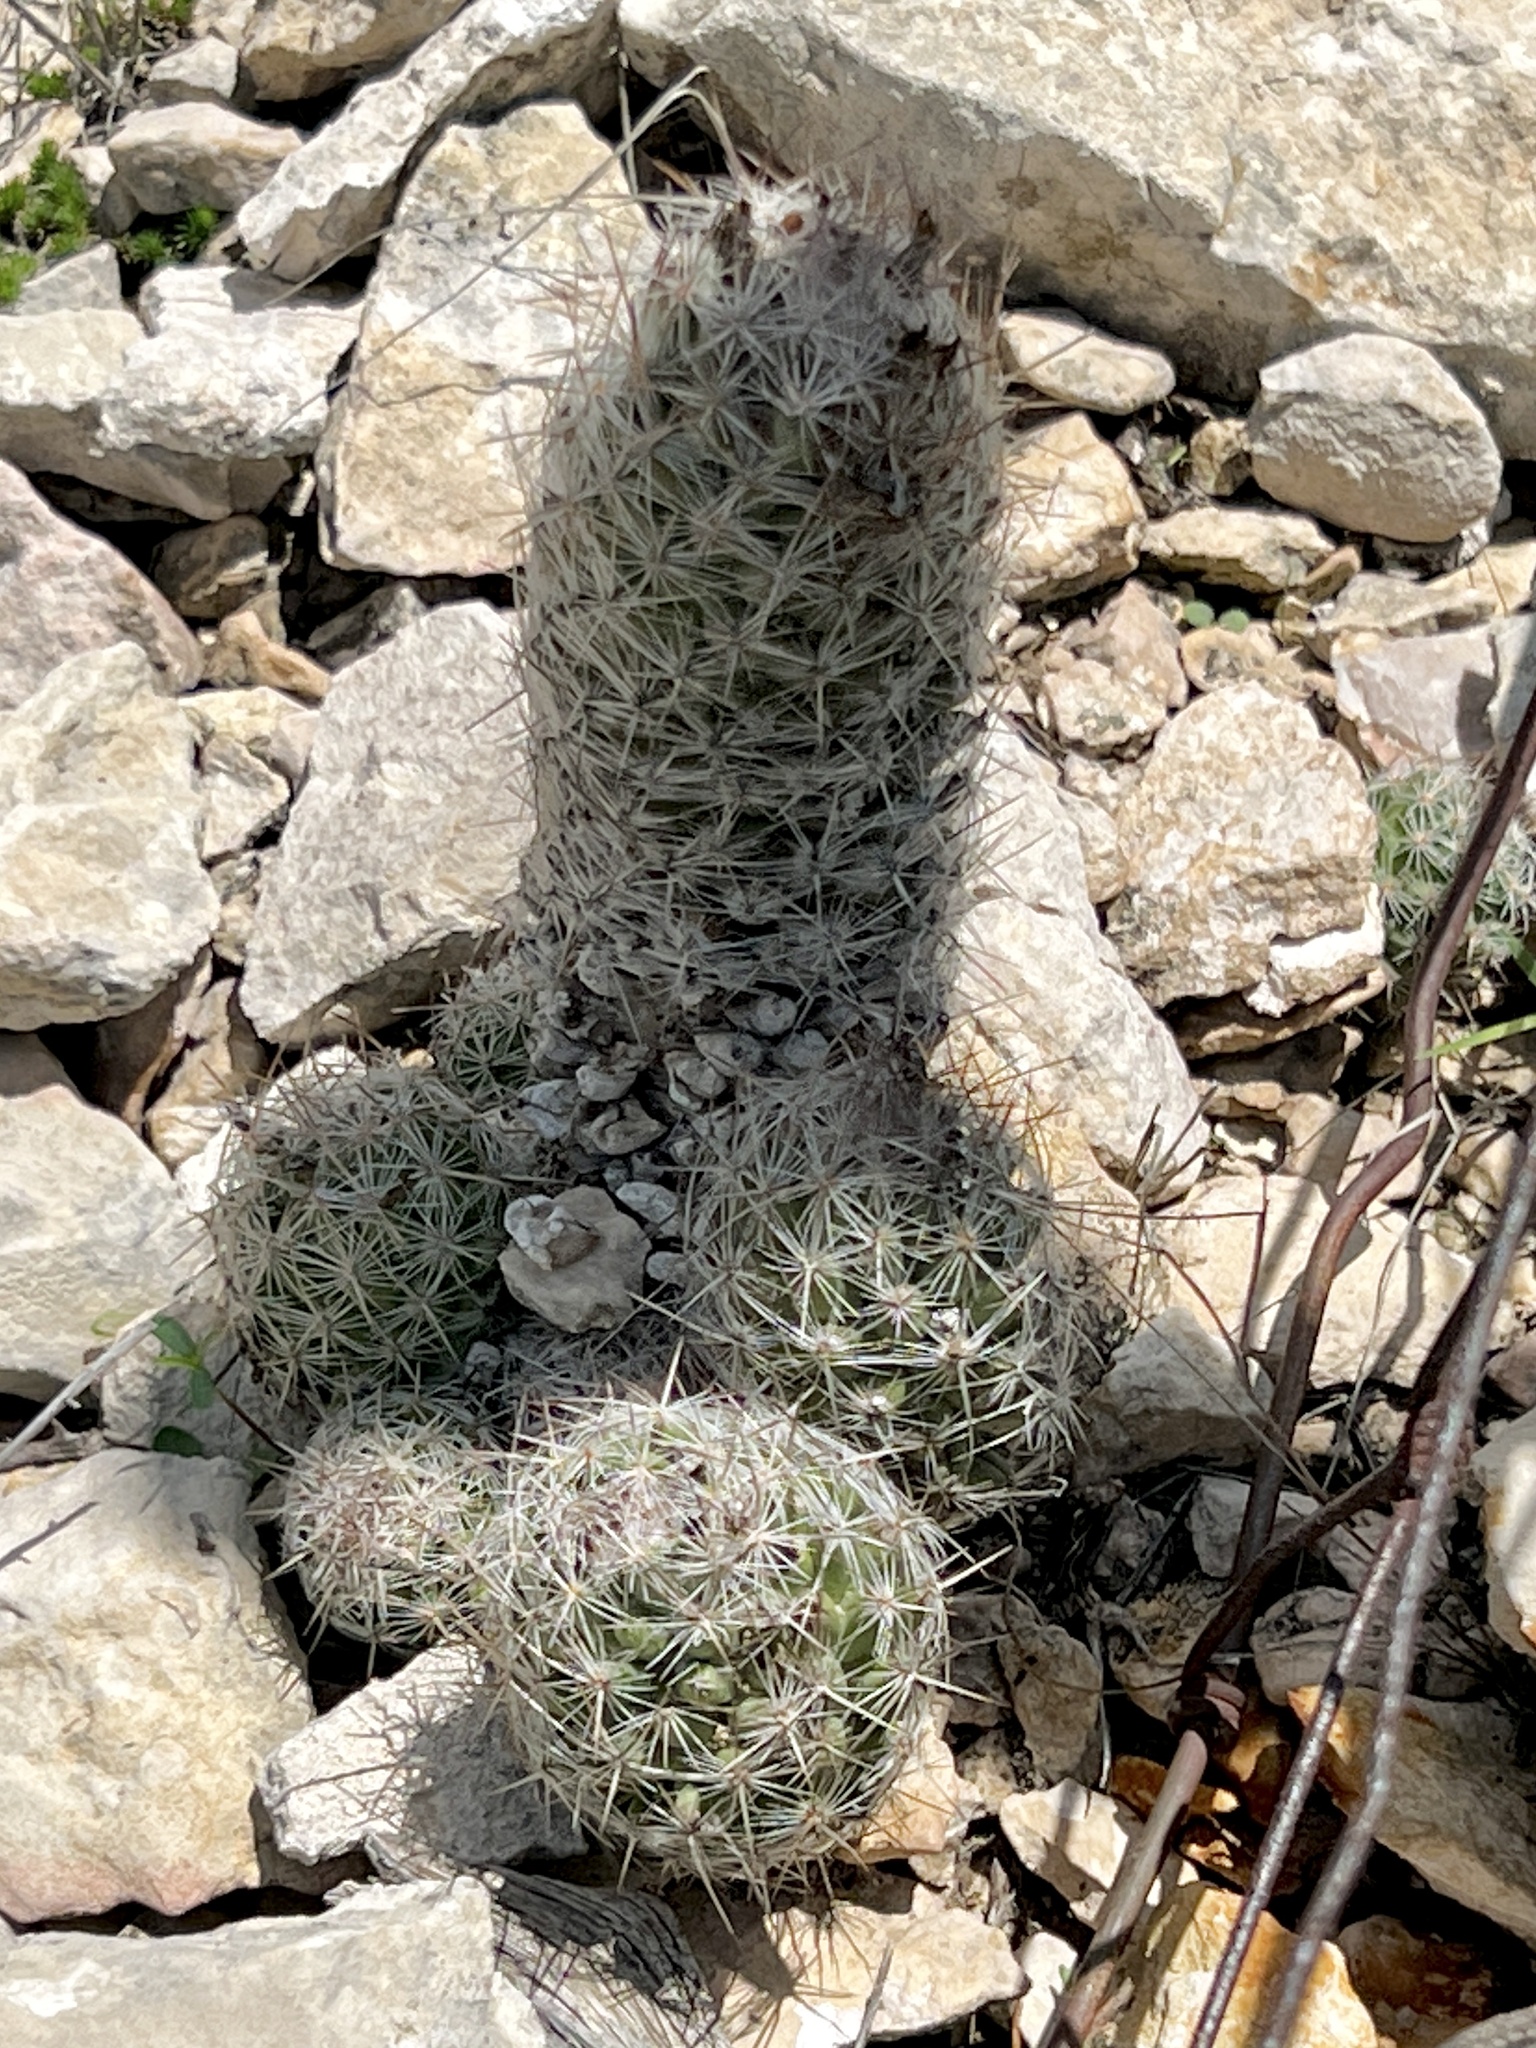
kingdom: Plantae
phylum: Tracheophyta
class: Magnoliopsida
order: Caryophyllales
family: Cactaceae
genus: Pelecyphora
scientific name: Pelecyphora tuberculosa
